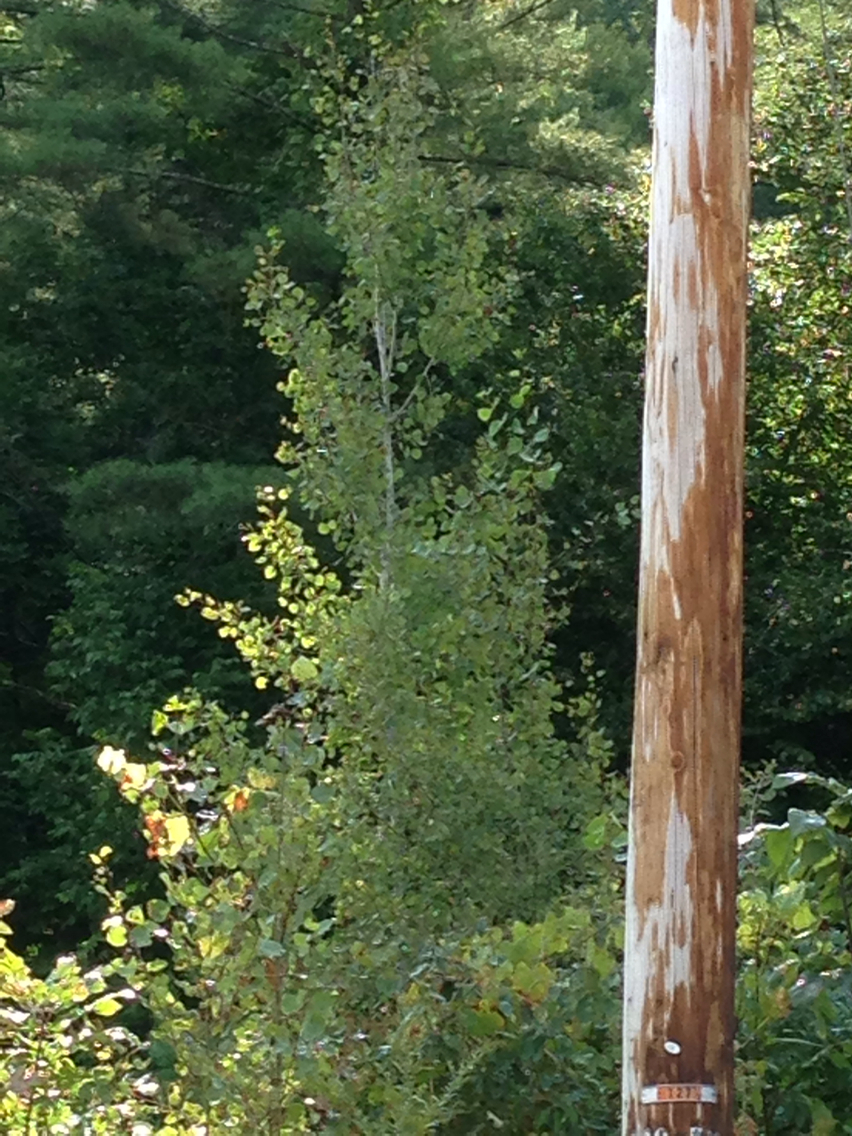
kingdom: Plantae
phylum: Tracheophyta
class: Magnoliopsida
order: Malpighiales
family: Salicaceae
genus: Populus
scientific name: Populus tremuloides
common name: Quaking aspen
